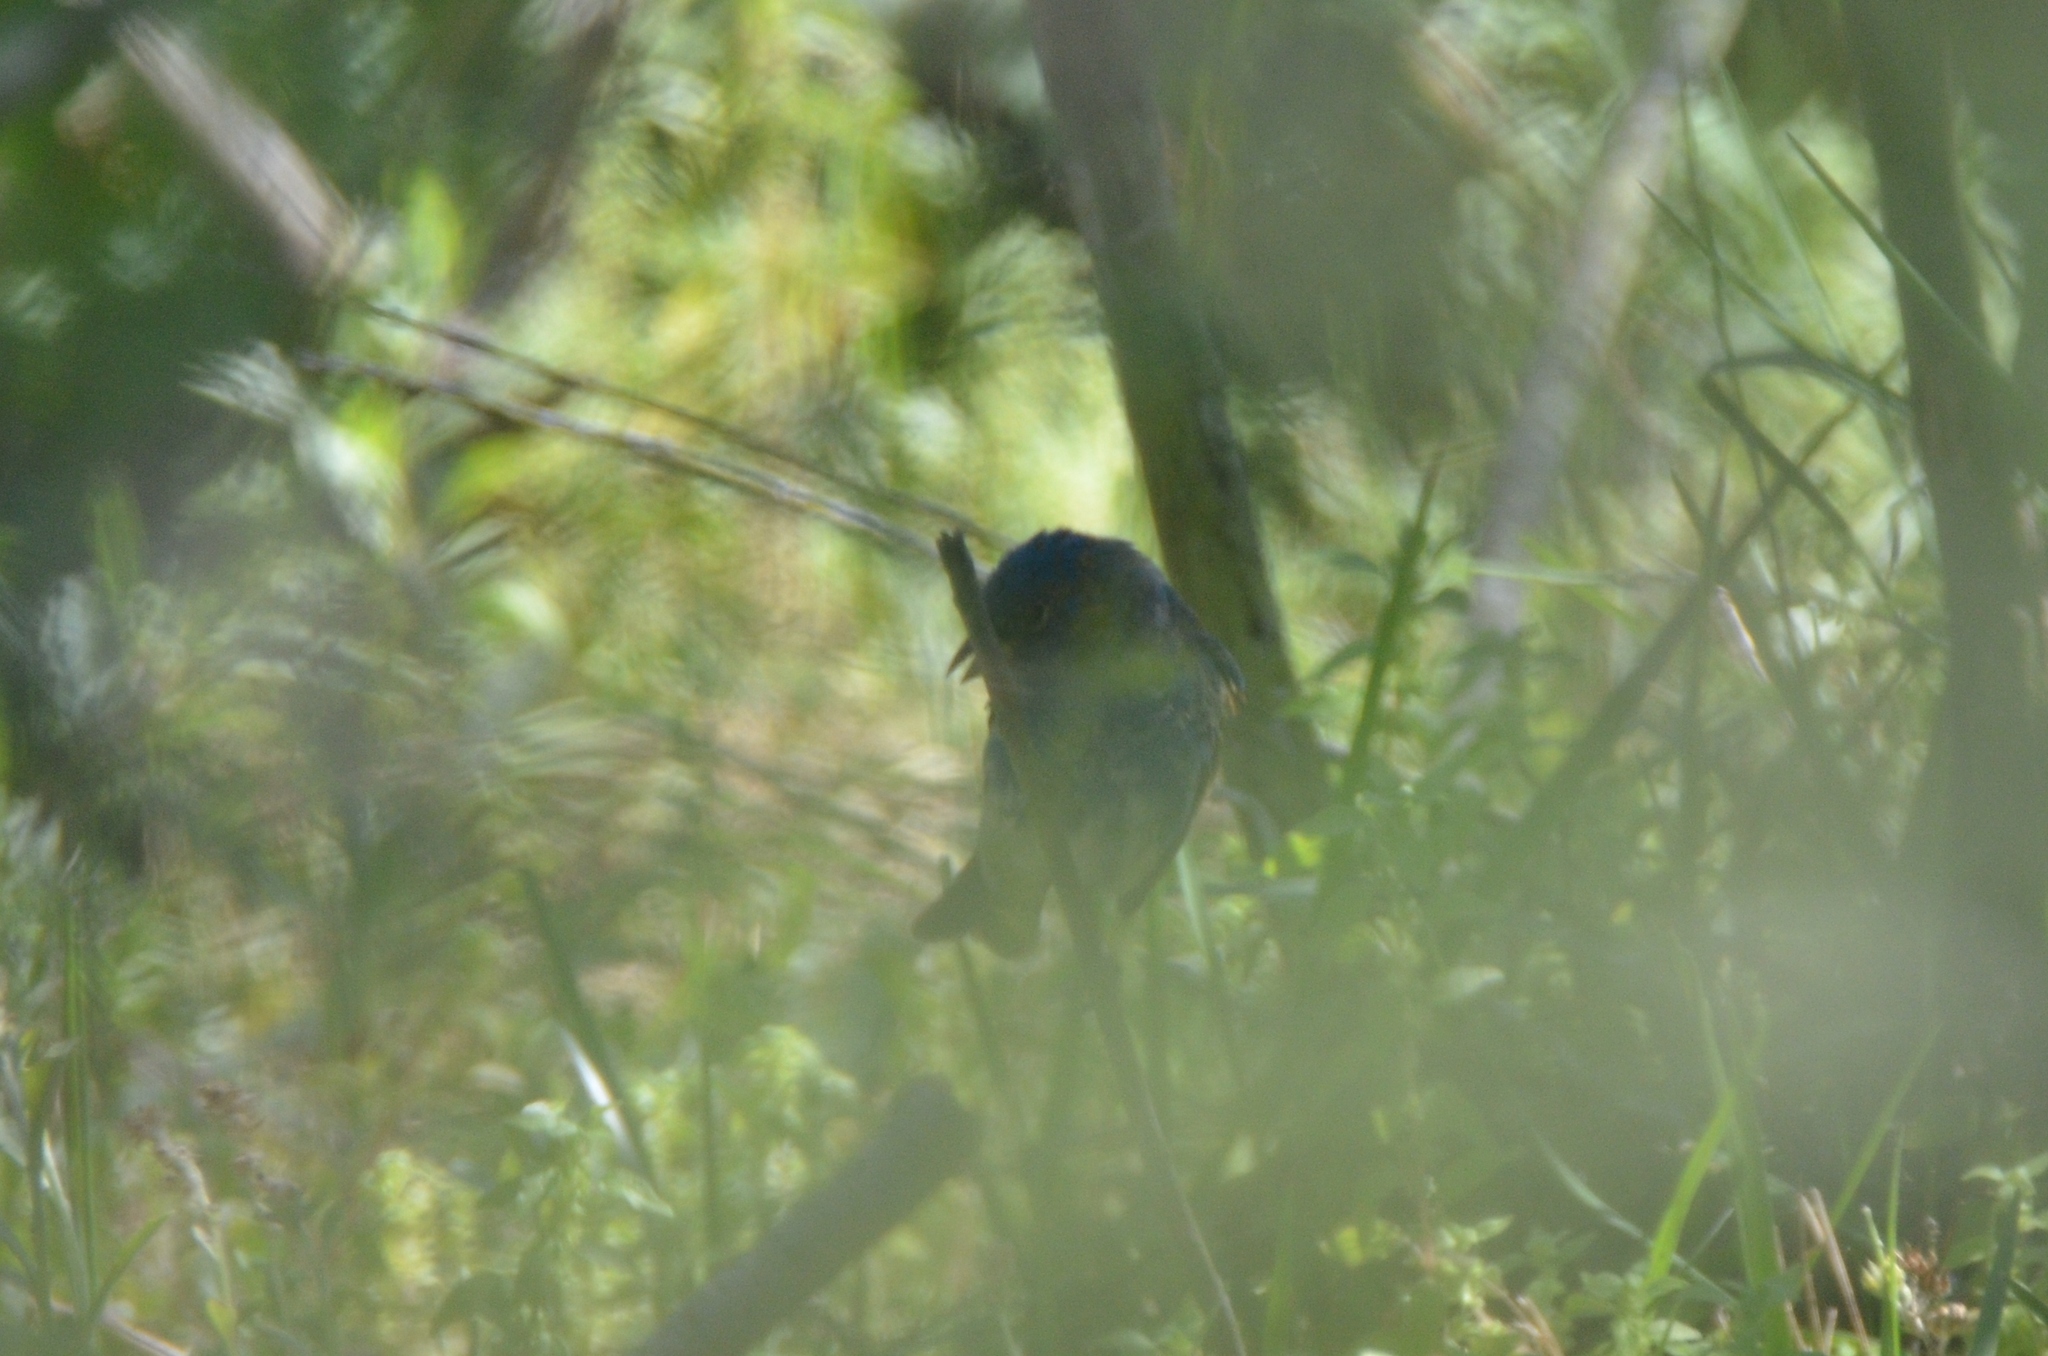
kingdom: Animalia
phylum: Chordata
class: Aves
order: Passeriformes
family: Cardinalidae
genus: Passerina
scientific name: Passerina cyanea
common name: Indigo bunting
